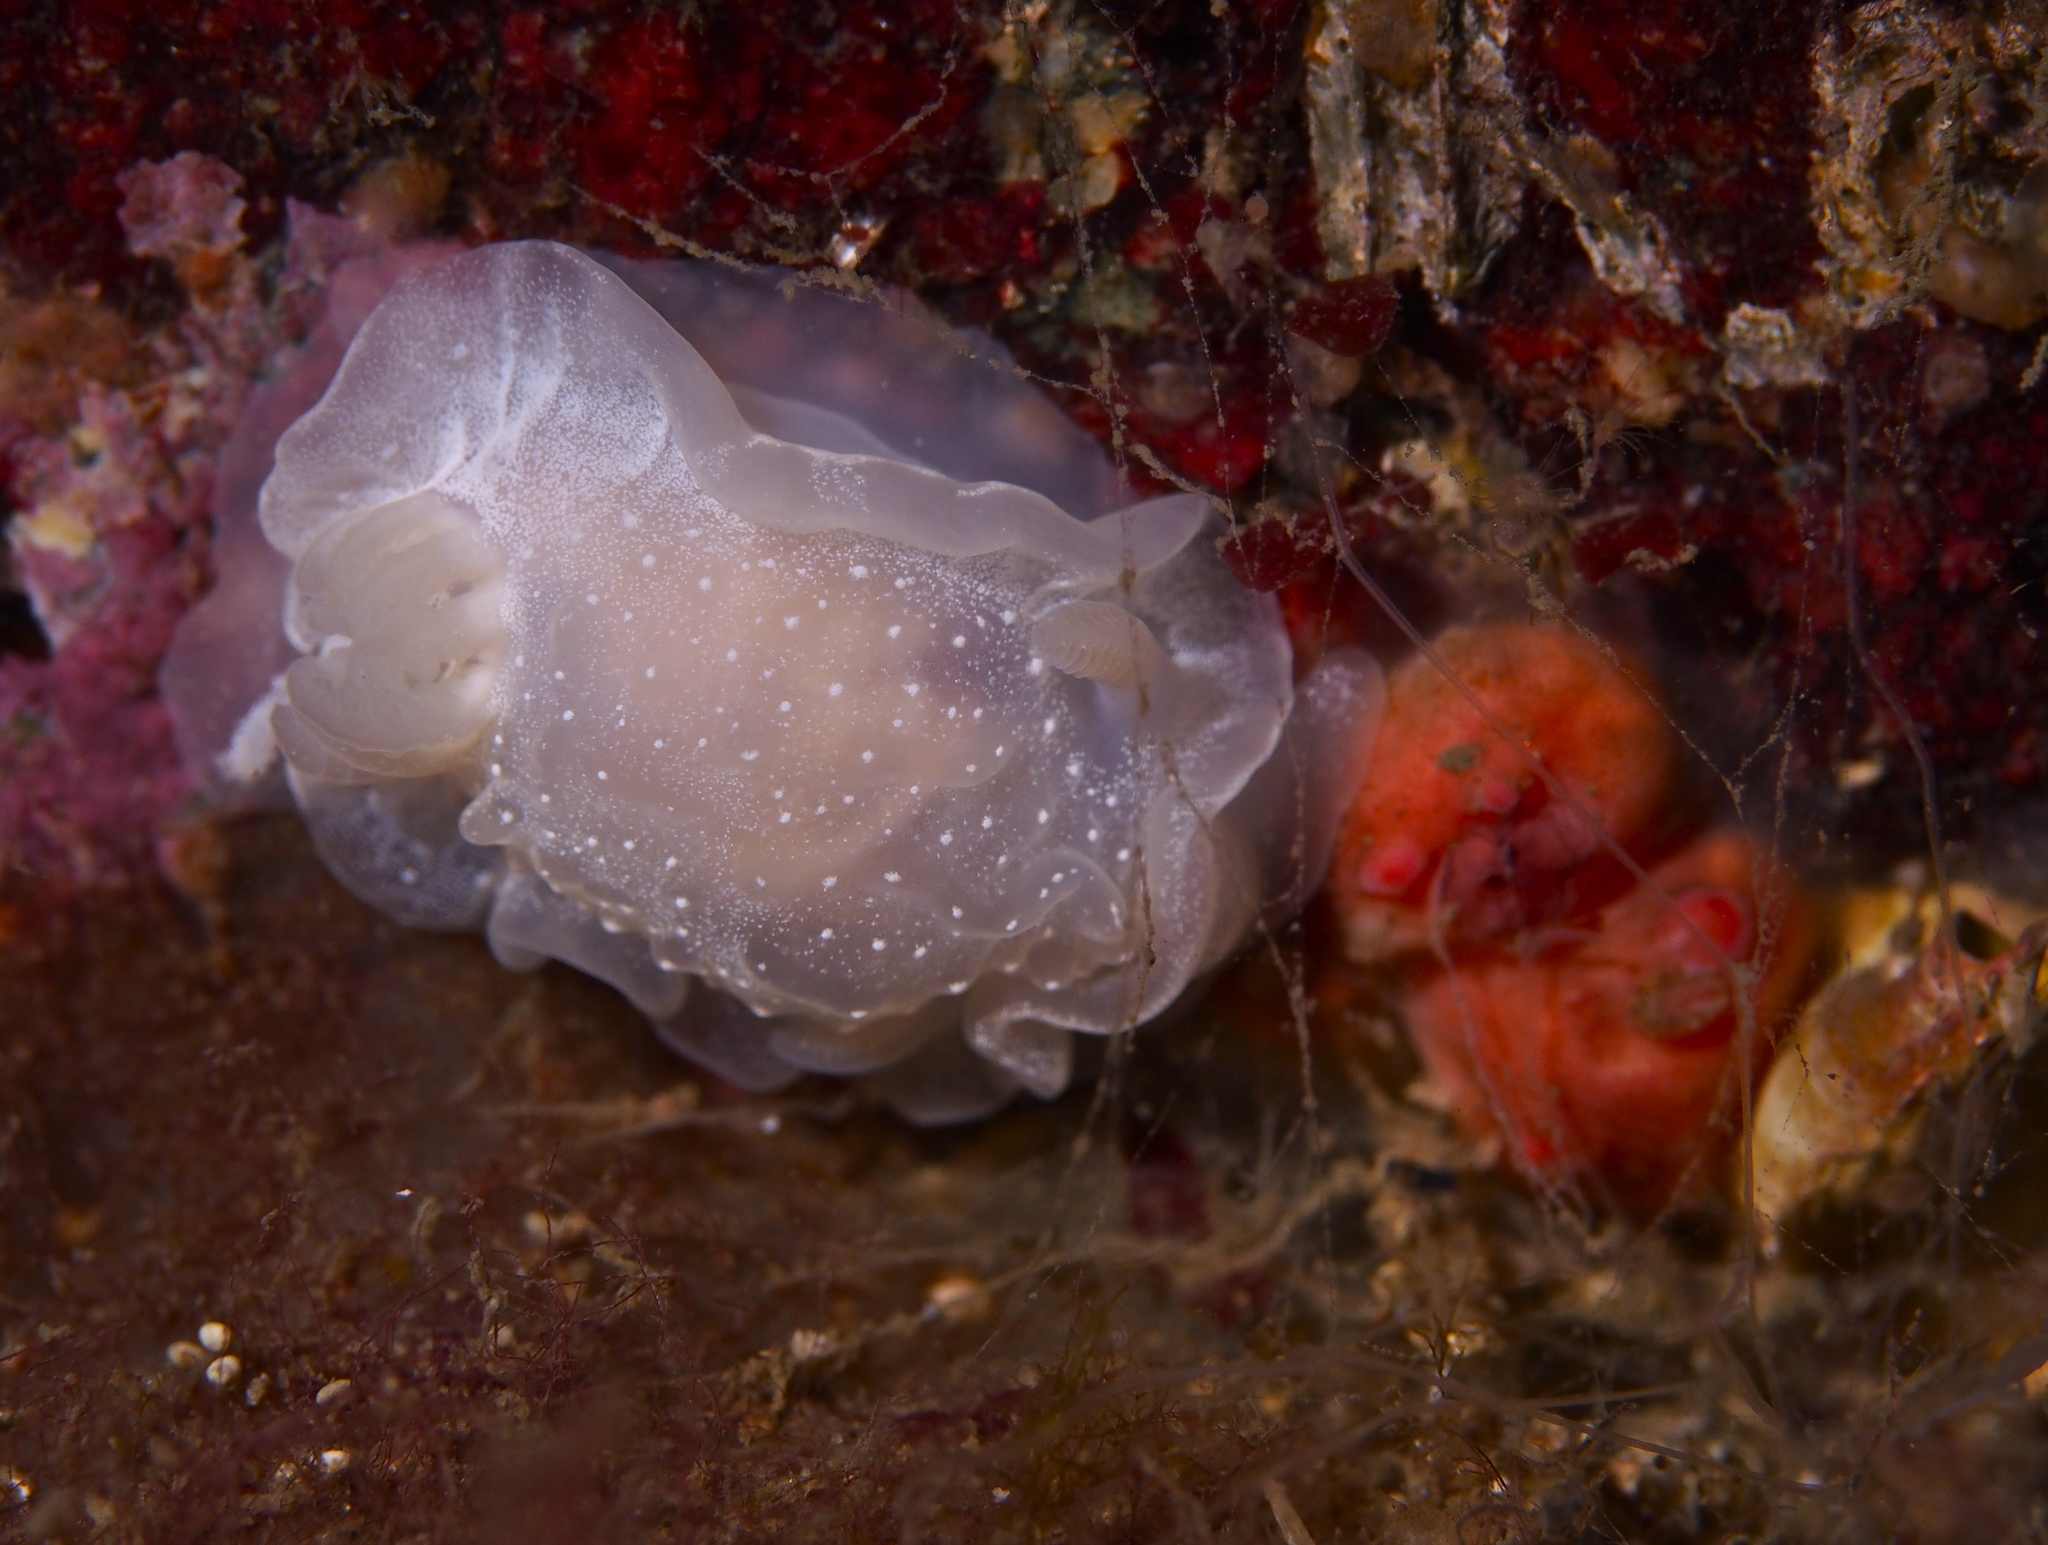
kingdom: Animalia
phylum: Mollusca
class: Gastropoda
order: Nudibranchia
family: Goniodorididae
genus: Okenia
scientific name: Okenia
